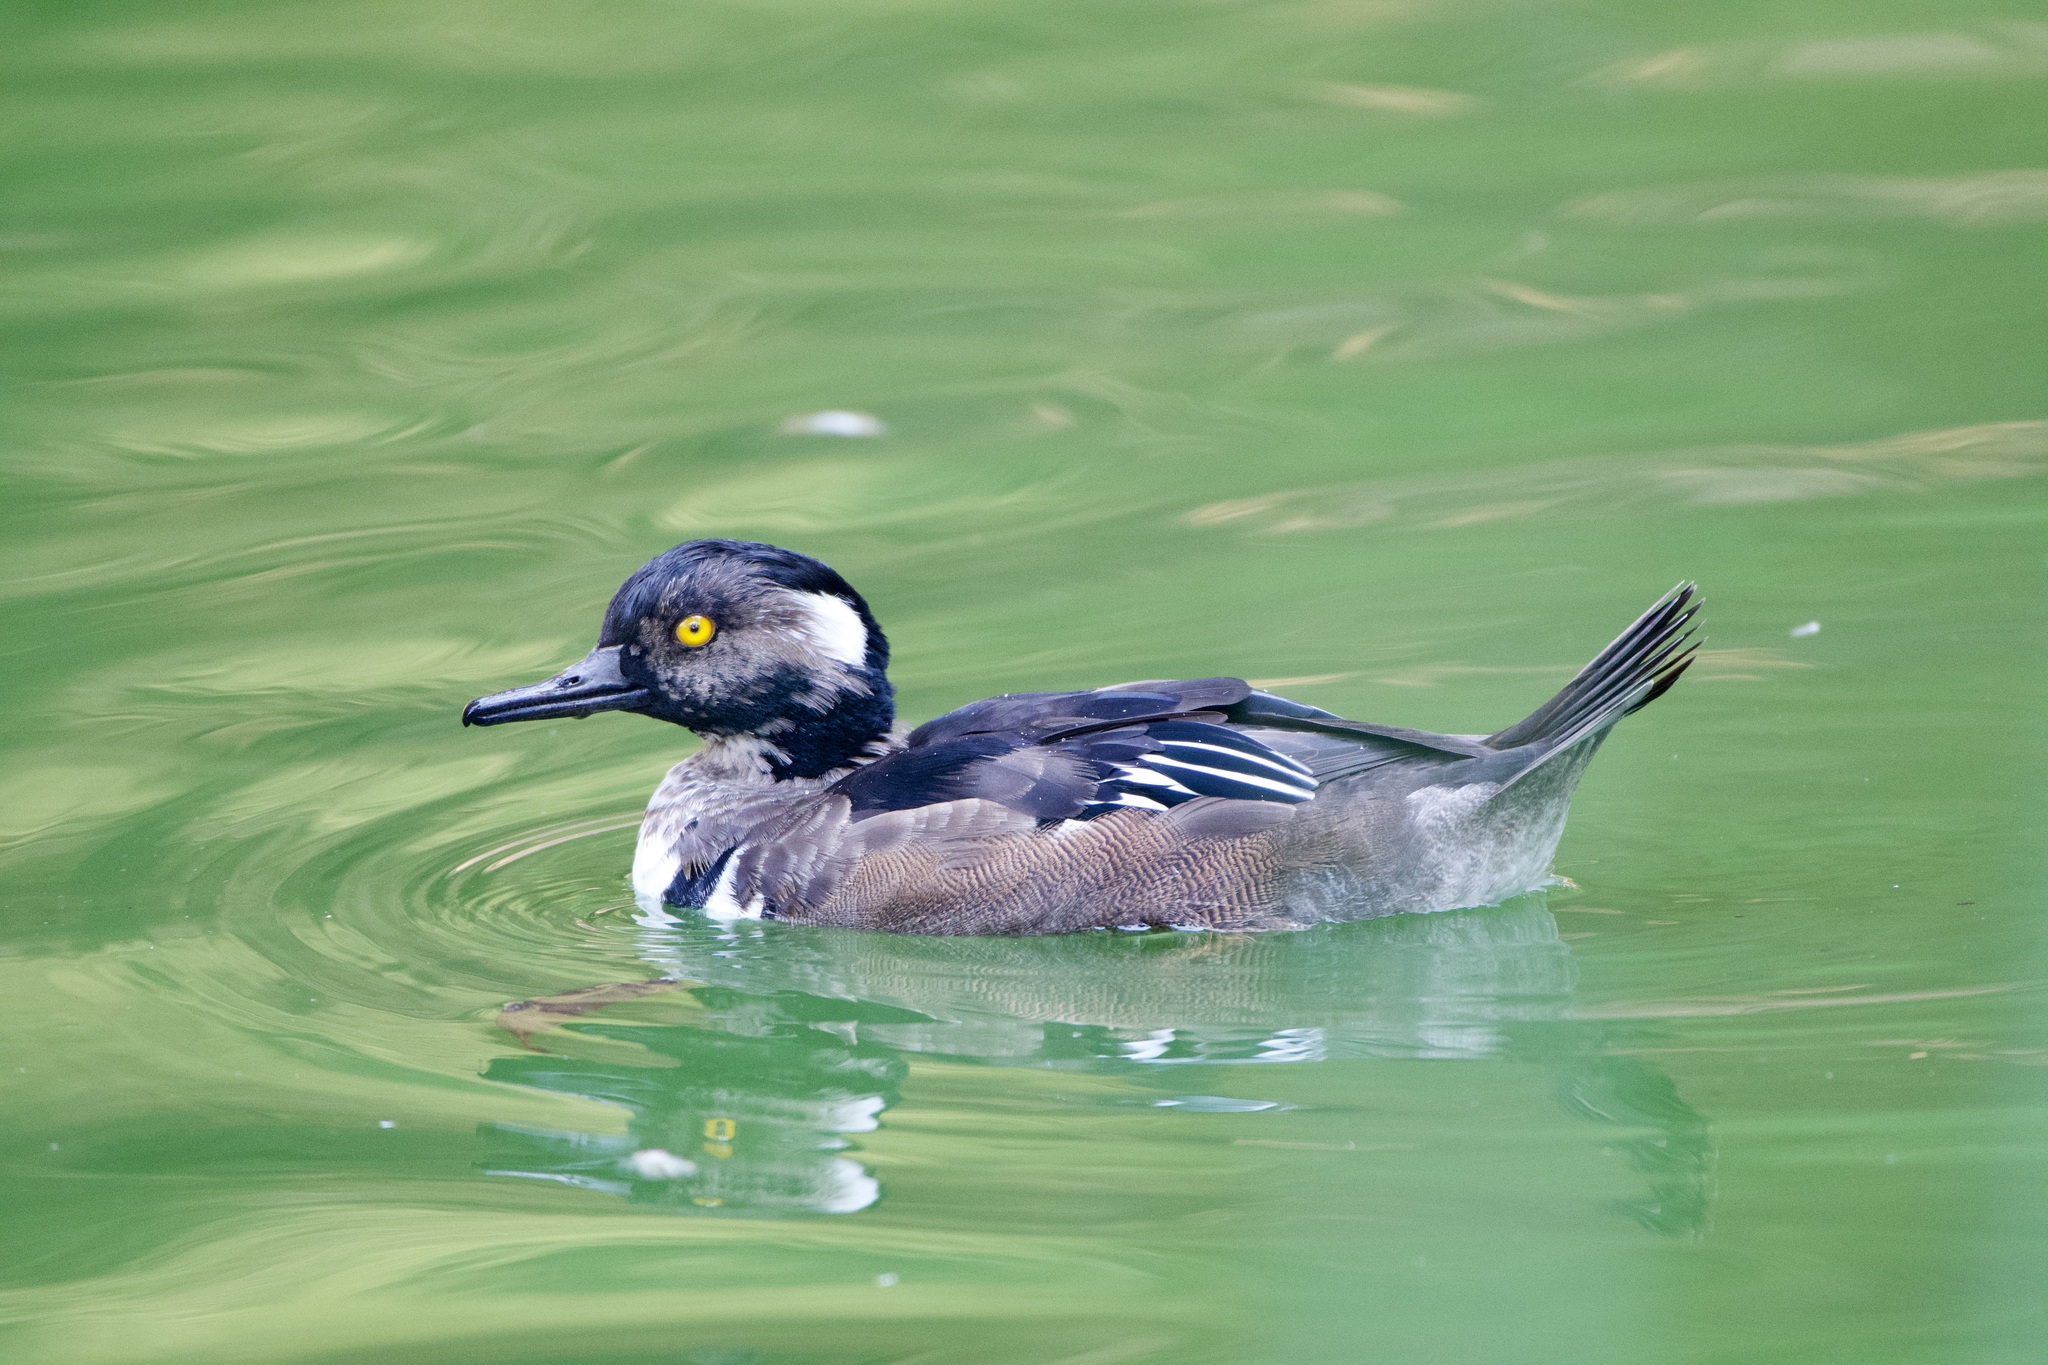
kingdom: Animalia
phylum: Chordata
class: Aves
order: Anseriformes
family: Anatidae
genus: Lophodytes
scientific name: Lophodytes cucullatus
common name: Hooded merganser
